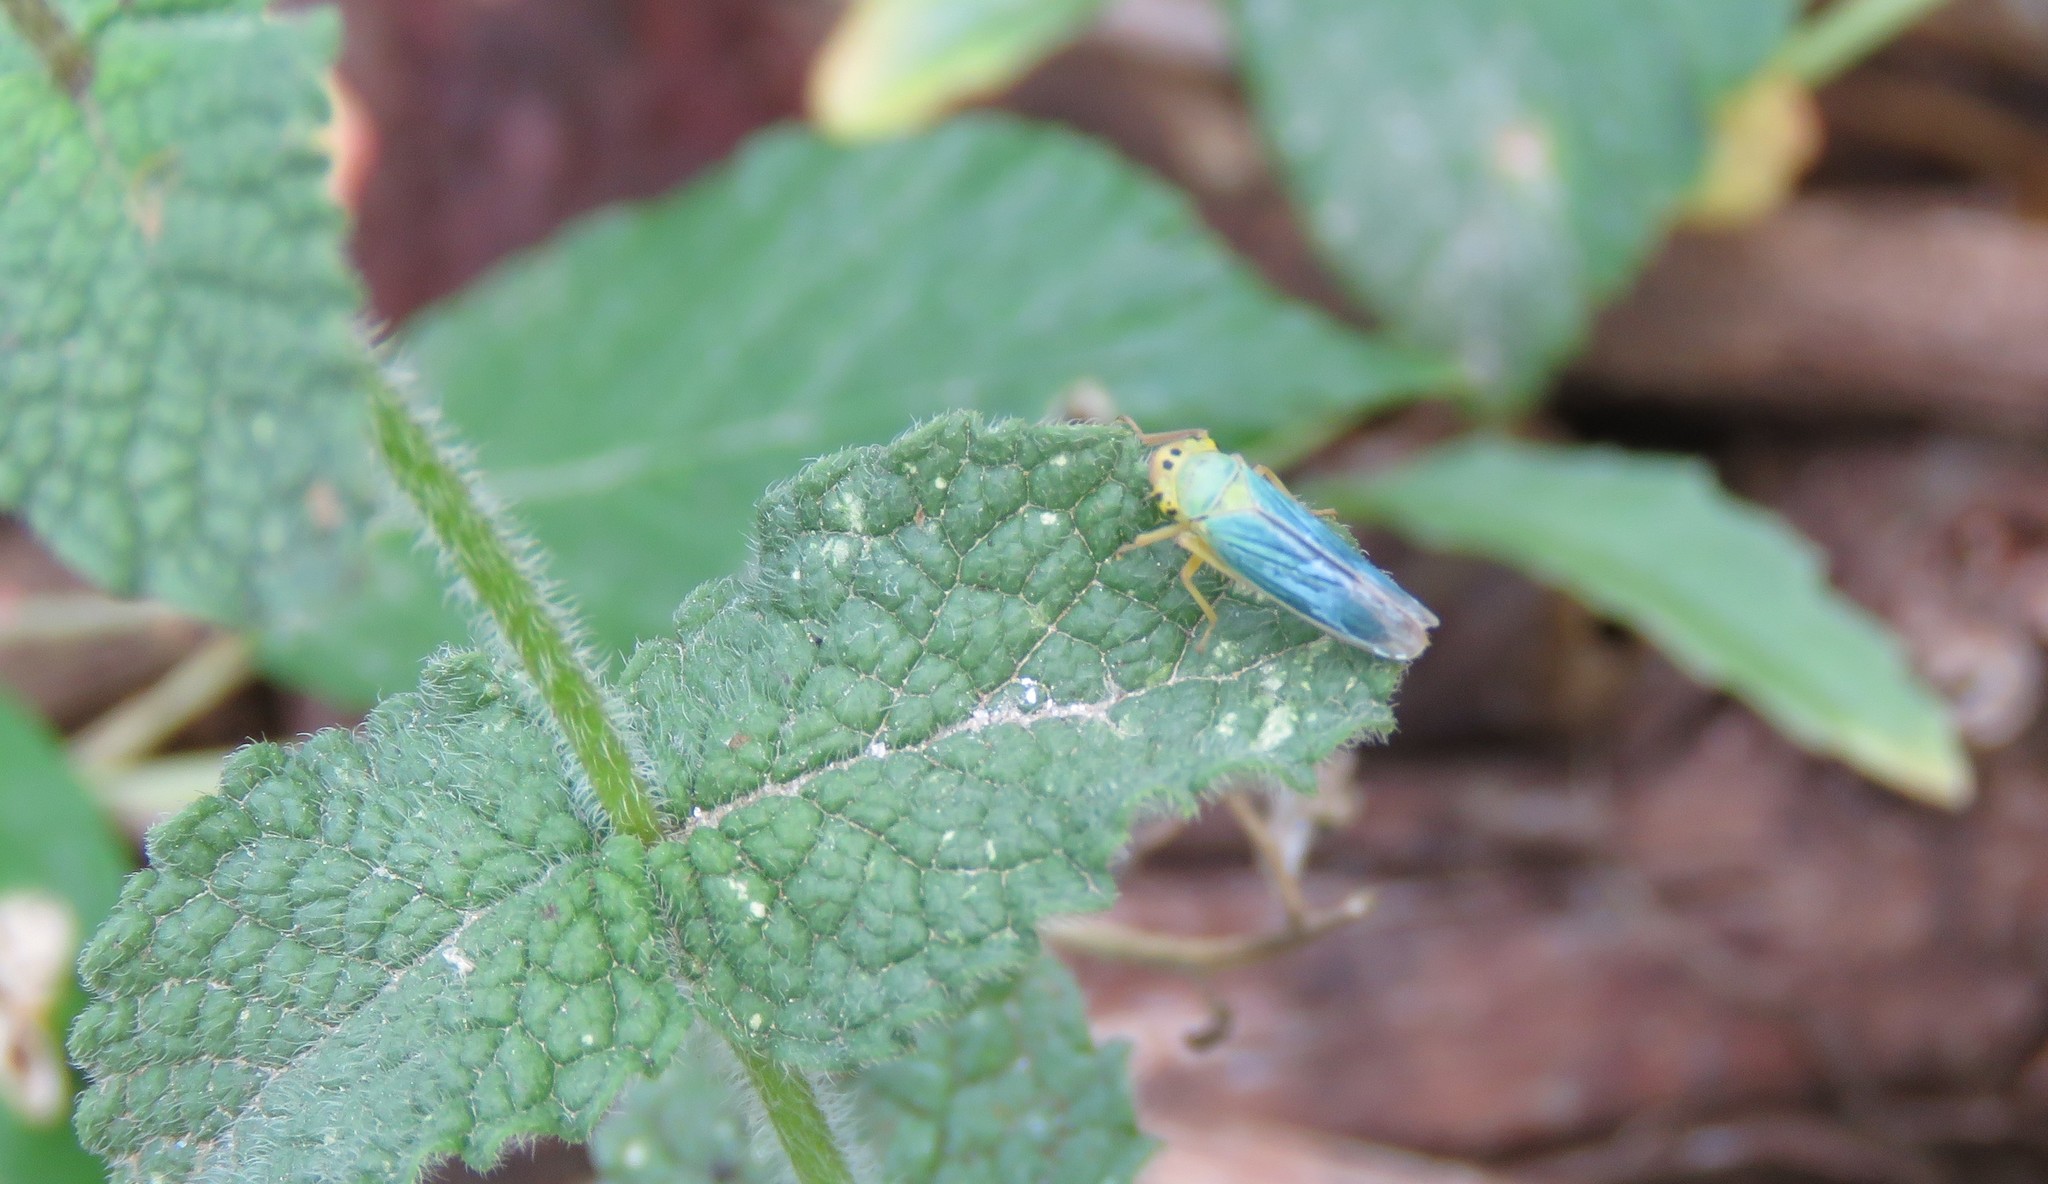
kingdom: Animalia
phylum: Arthropoda
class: Insecta
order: Hemiptera
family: Cicadellidae
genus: Cicadella
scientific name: Cicadella viridis
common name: Leafhopper
